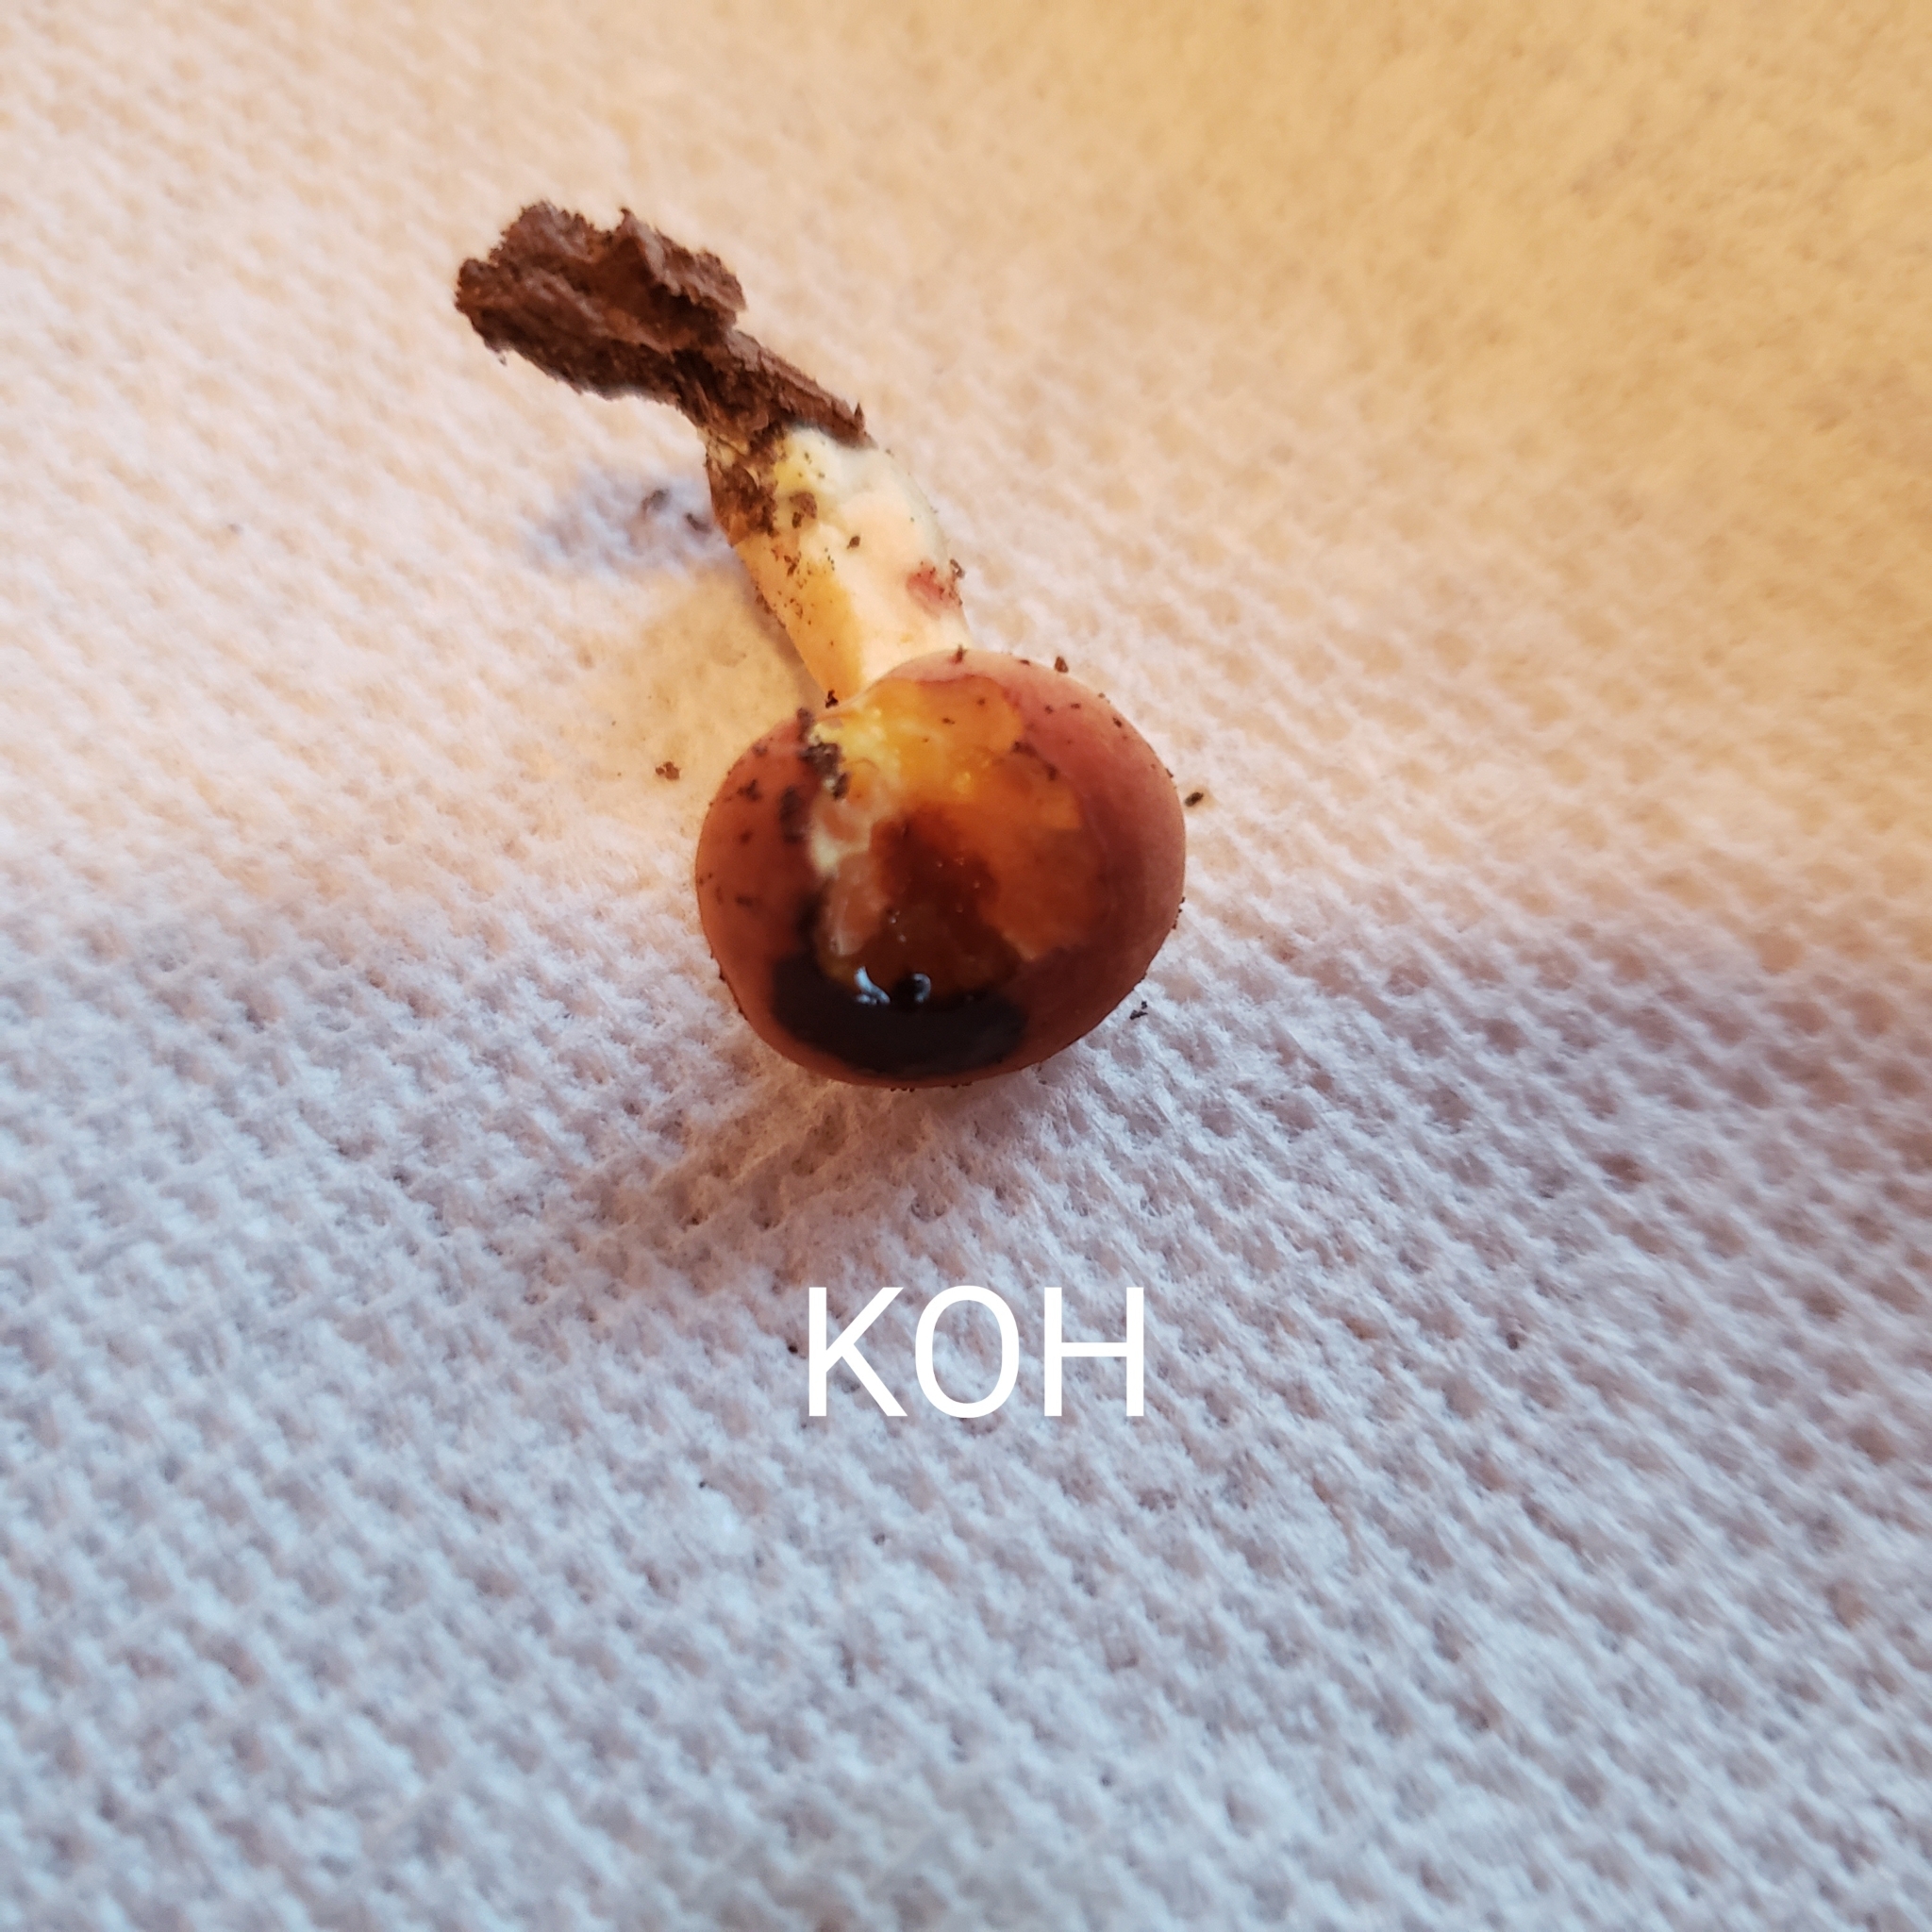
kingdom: Fungi
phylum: Basidiomycota
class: Agaricomycetes
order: Boletales
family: Boletaceae
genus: Xerocomus
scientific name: Xerocomus illudens
